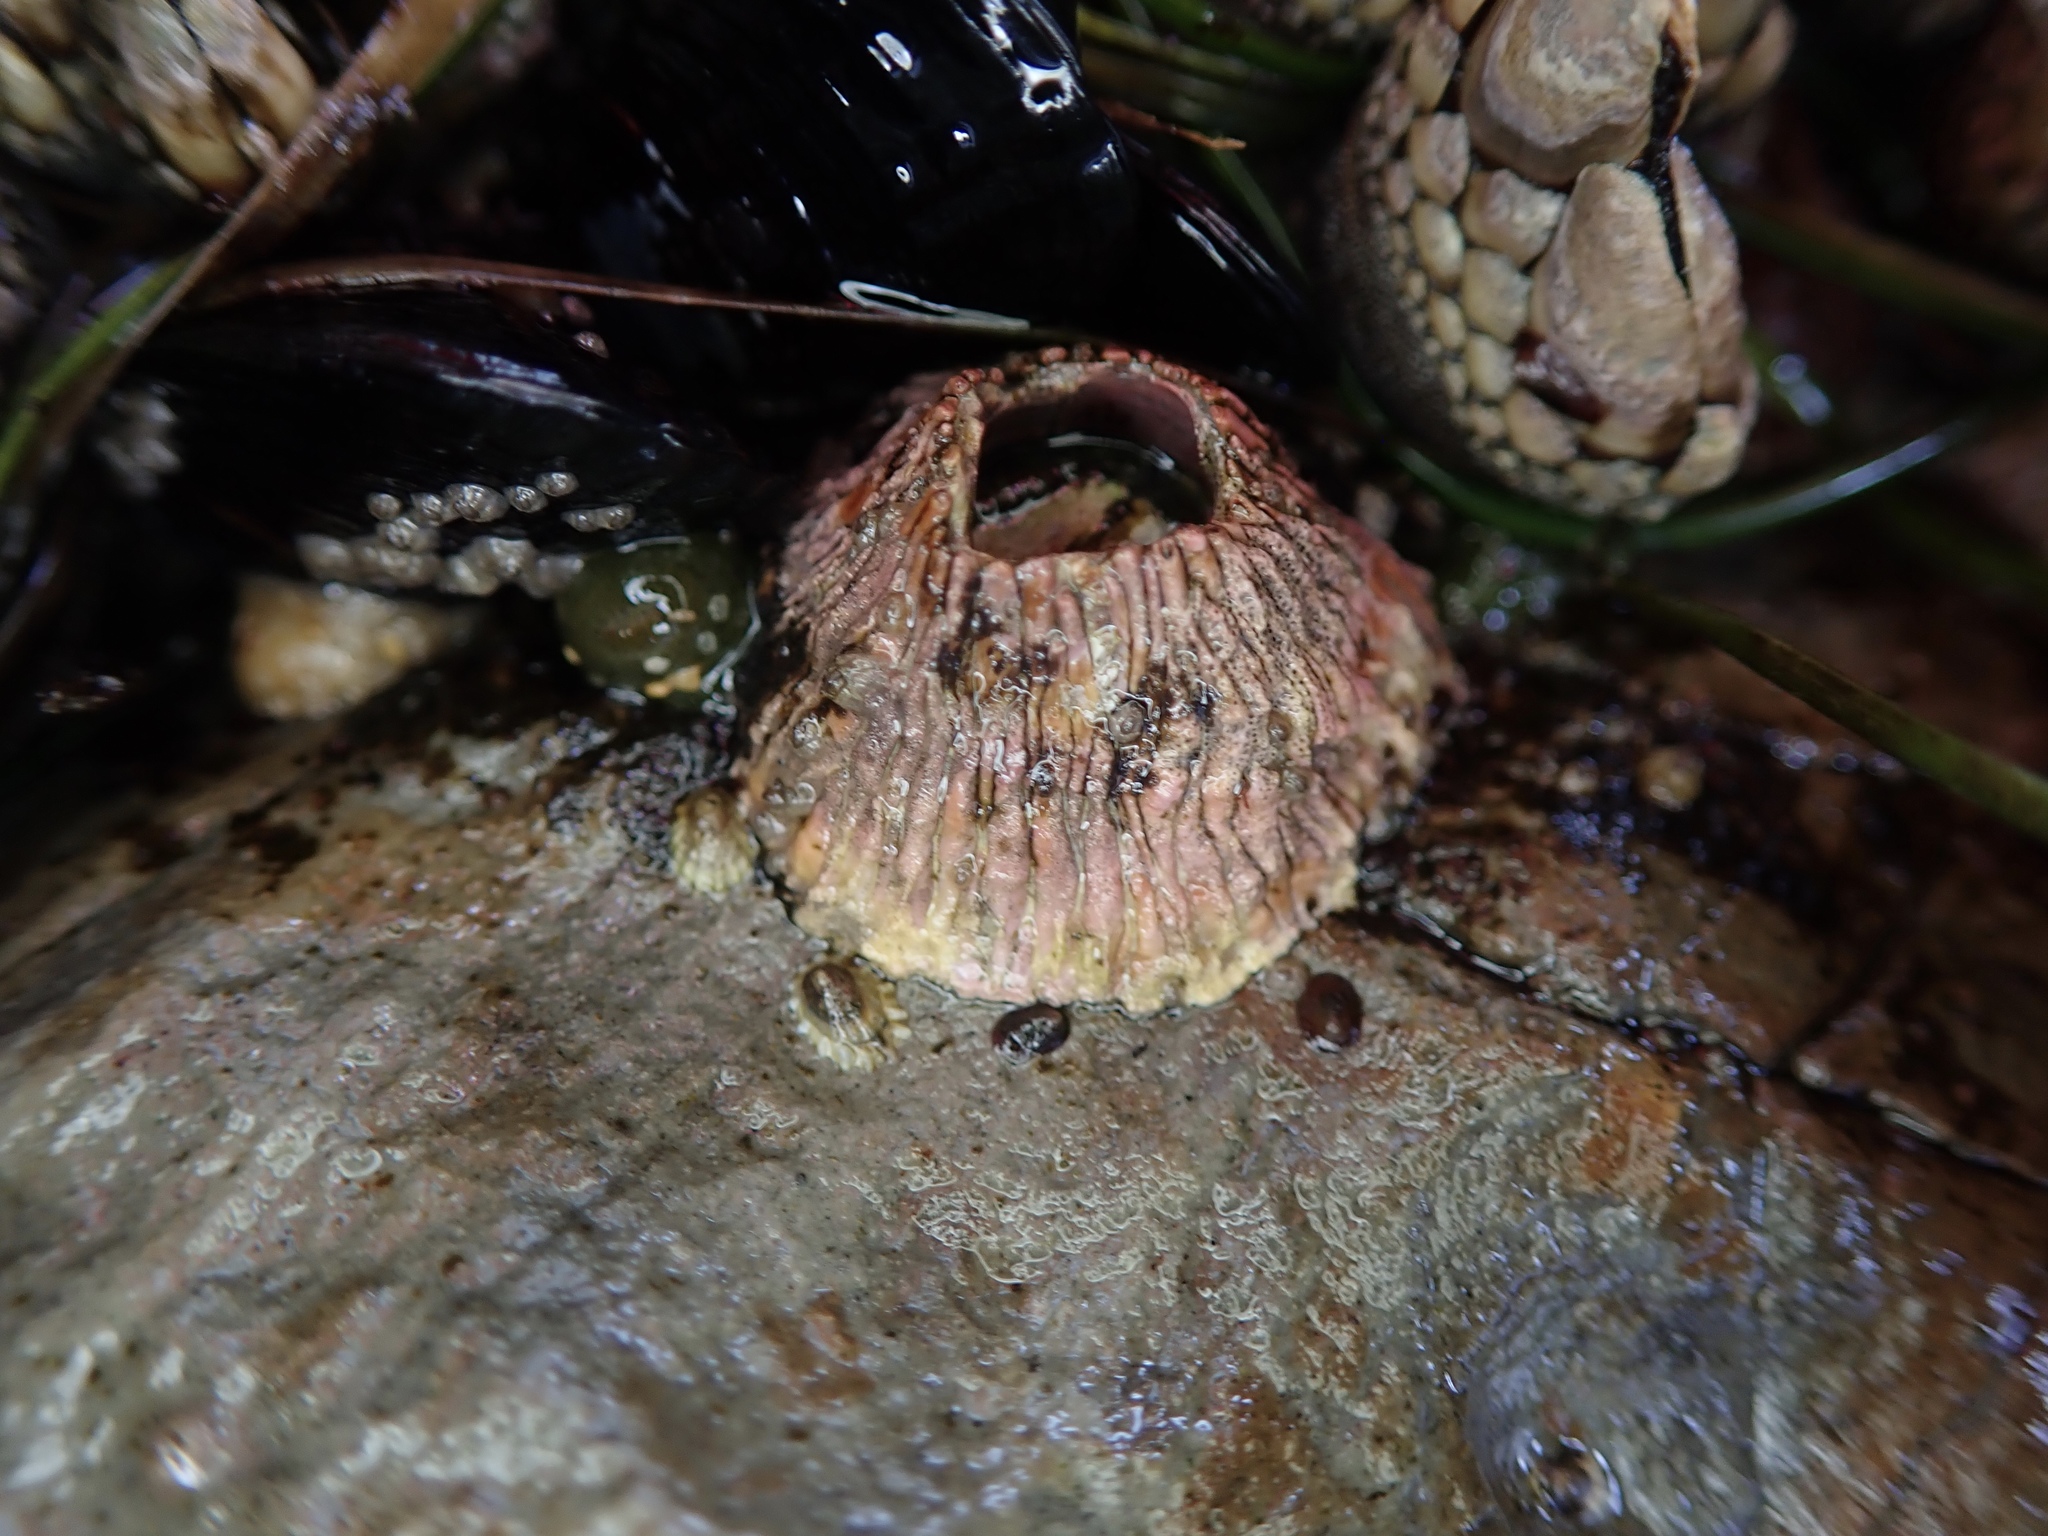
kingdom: Animalia
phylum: Arthropoda
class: Maxillopoda
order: Sessilia
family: Tetraclitidae
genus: Tetraclita
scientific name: Tetraclita rubescens
